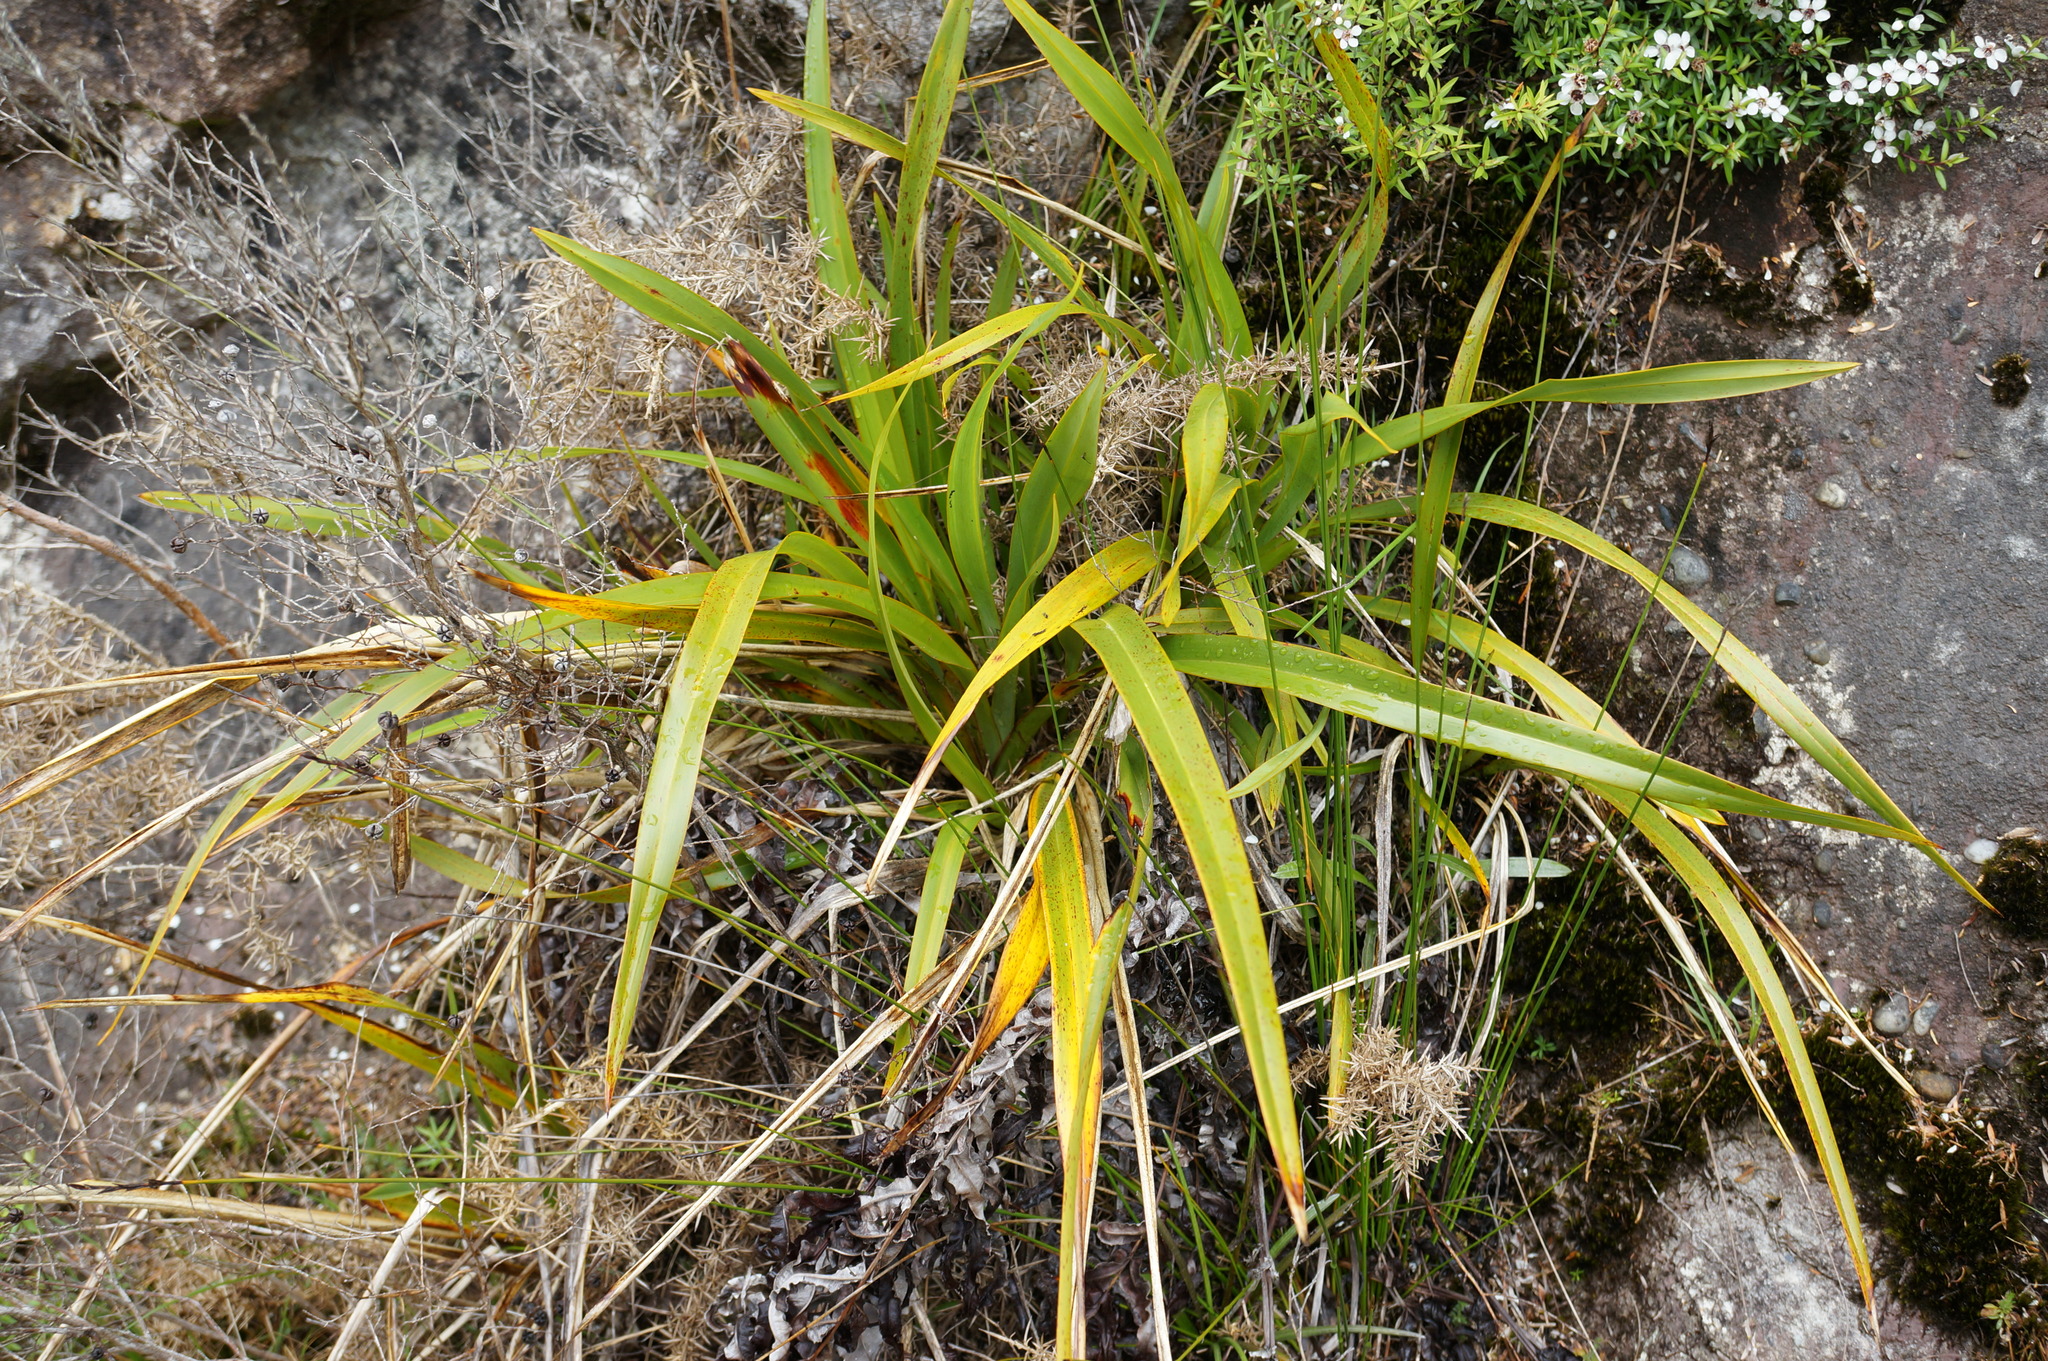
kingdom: Plantae
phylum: Tracheophyta
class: Liliopsida
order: Asparagales
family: Asphodelaceae
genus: Phormium
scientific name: Phormium colensoi
